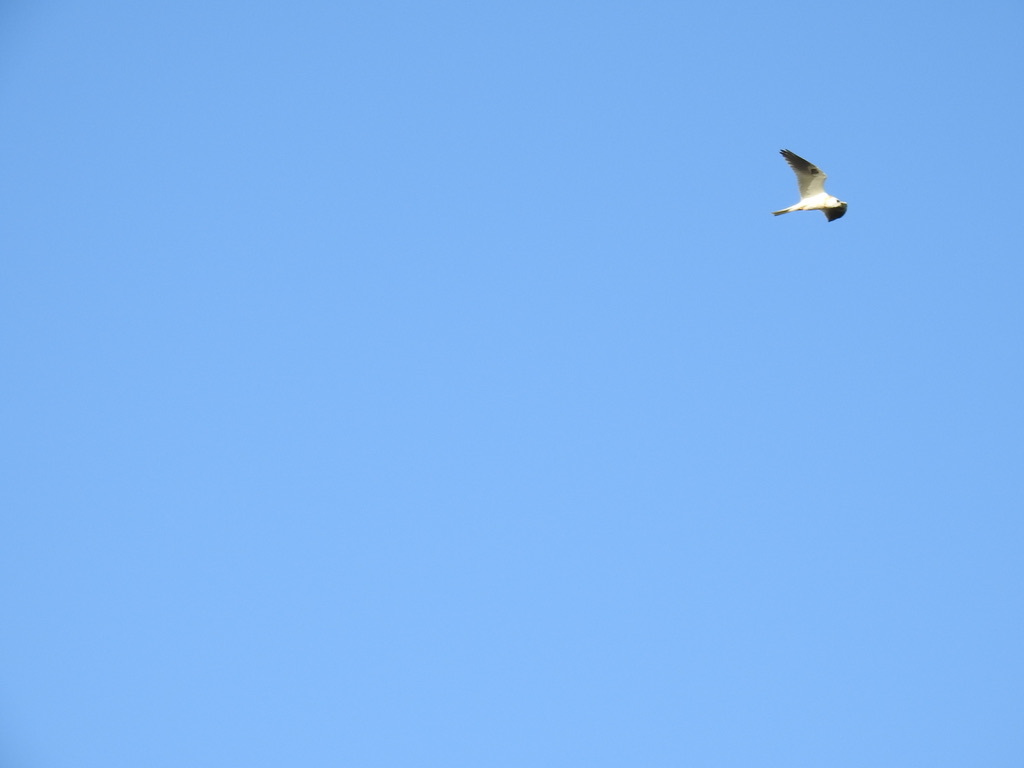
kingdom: Animalia
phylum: Chordata
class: Aves
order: Accipitriformes
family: Accipitridae
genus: Elanus
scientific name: Elanus leucurus
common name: White-tailed kite
